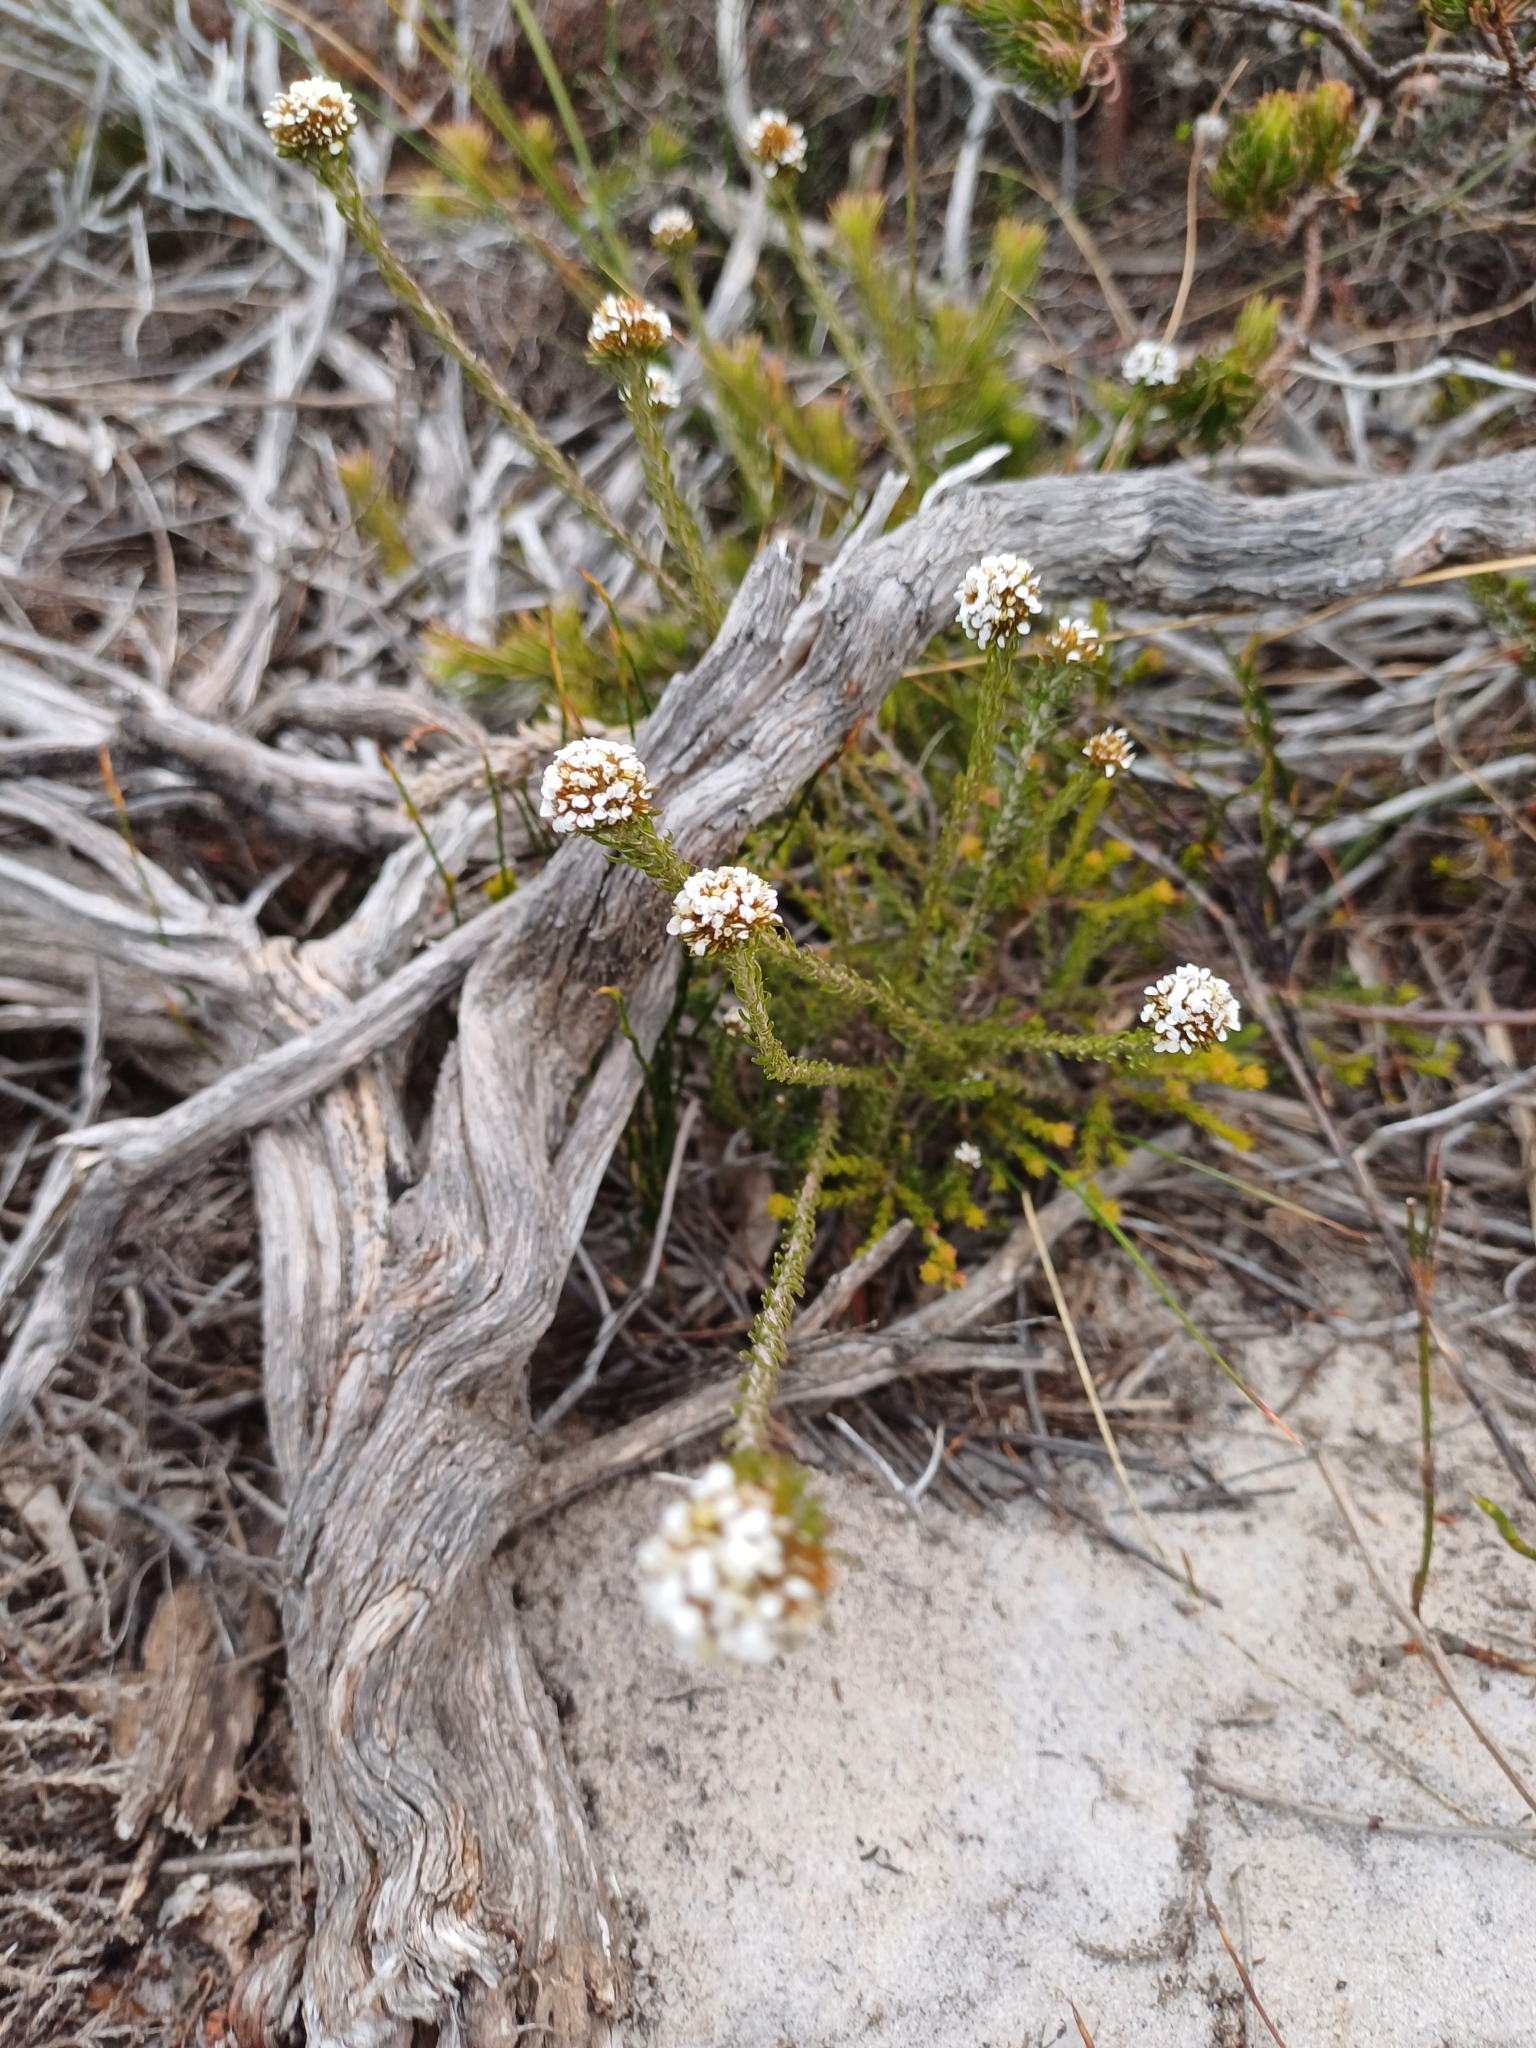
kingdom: Plantae
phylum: Tracheophyta
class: Magnoliopsida
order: Asterales
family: Asteraceae
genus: Disparago
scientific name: Disparago anomala
